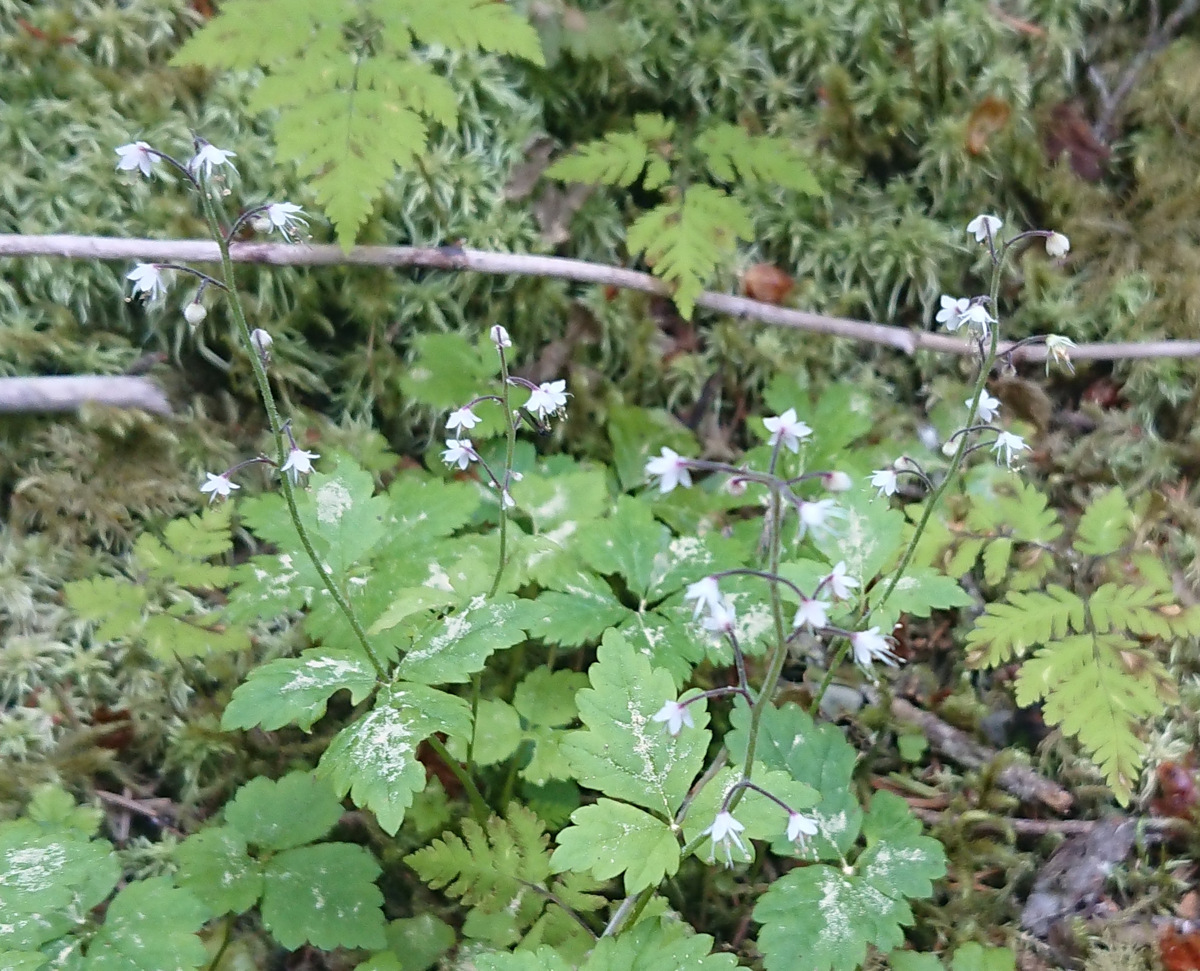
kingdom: Plantae
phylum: Tracheophyta
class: Magnoliopsida
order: Saxifragales
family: Saxifragaceae
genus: Tiarella
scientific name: Tiarella trifoliata
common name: Sugar-scoop
